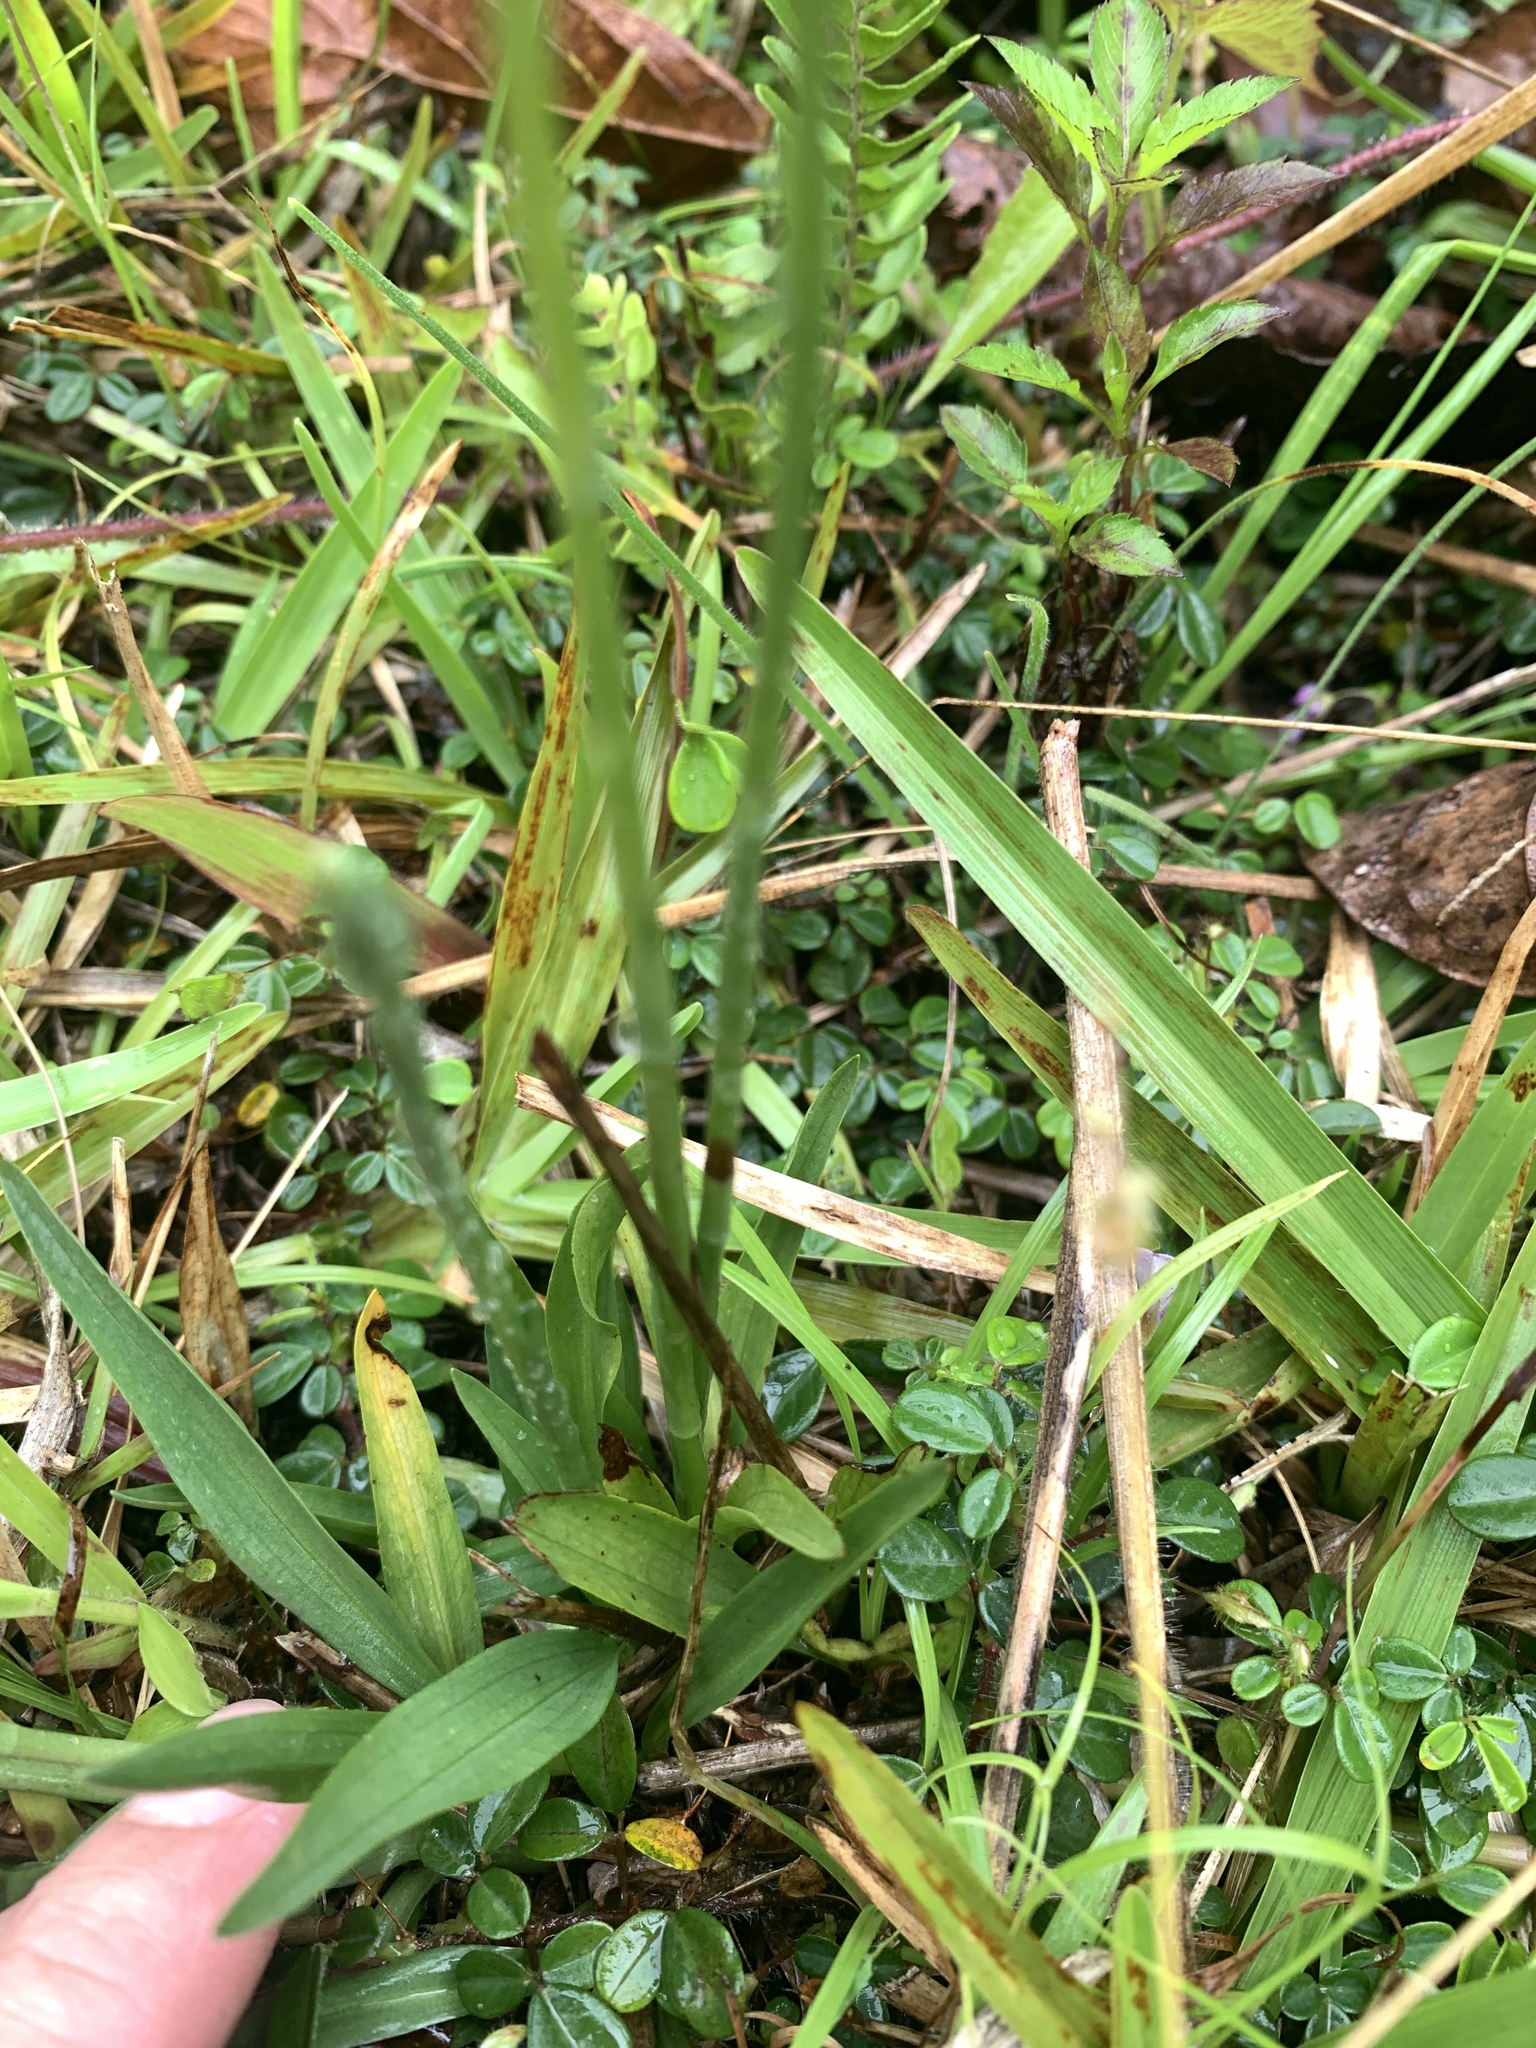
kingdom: Plantae
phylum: Tracheophyta
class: Liliopsida
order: Asparagales
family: Orchidaceae
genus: Spiranthes
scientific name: Spiranthes australis
